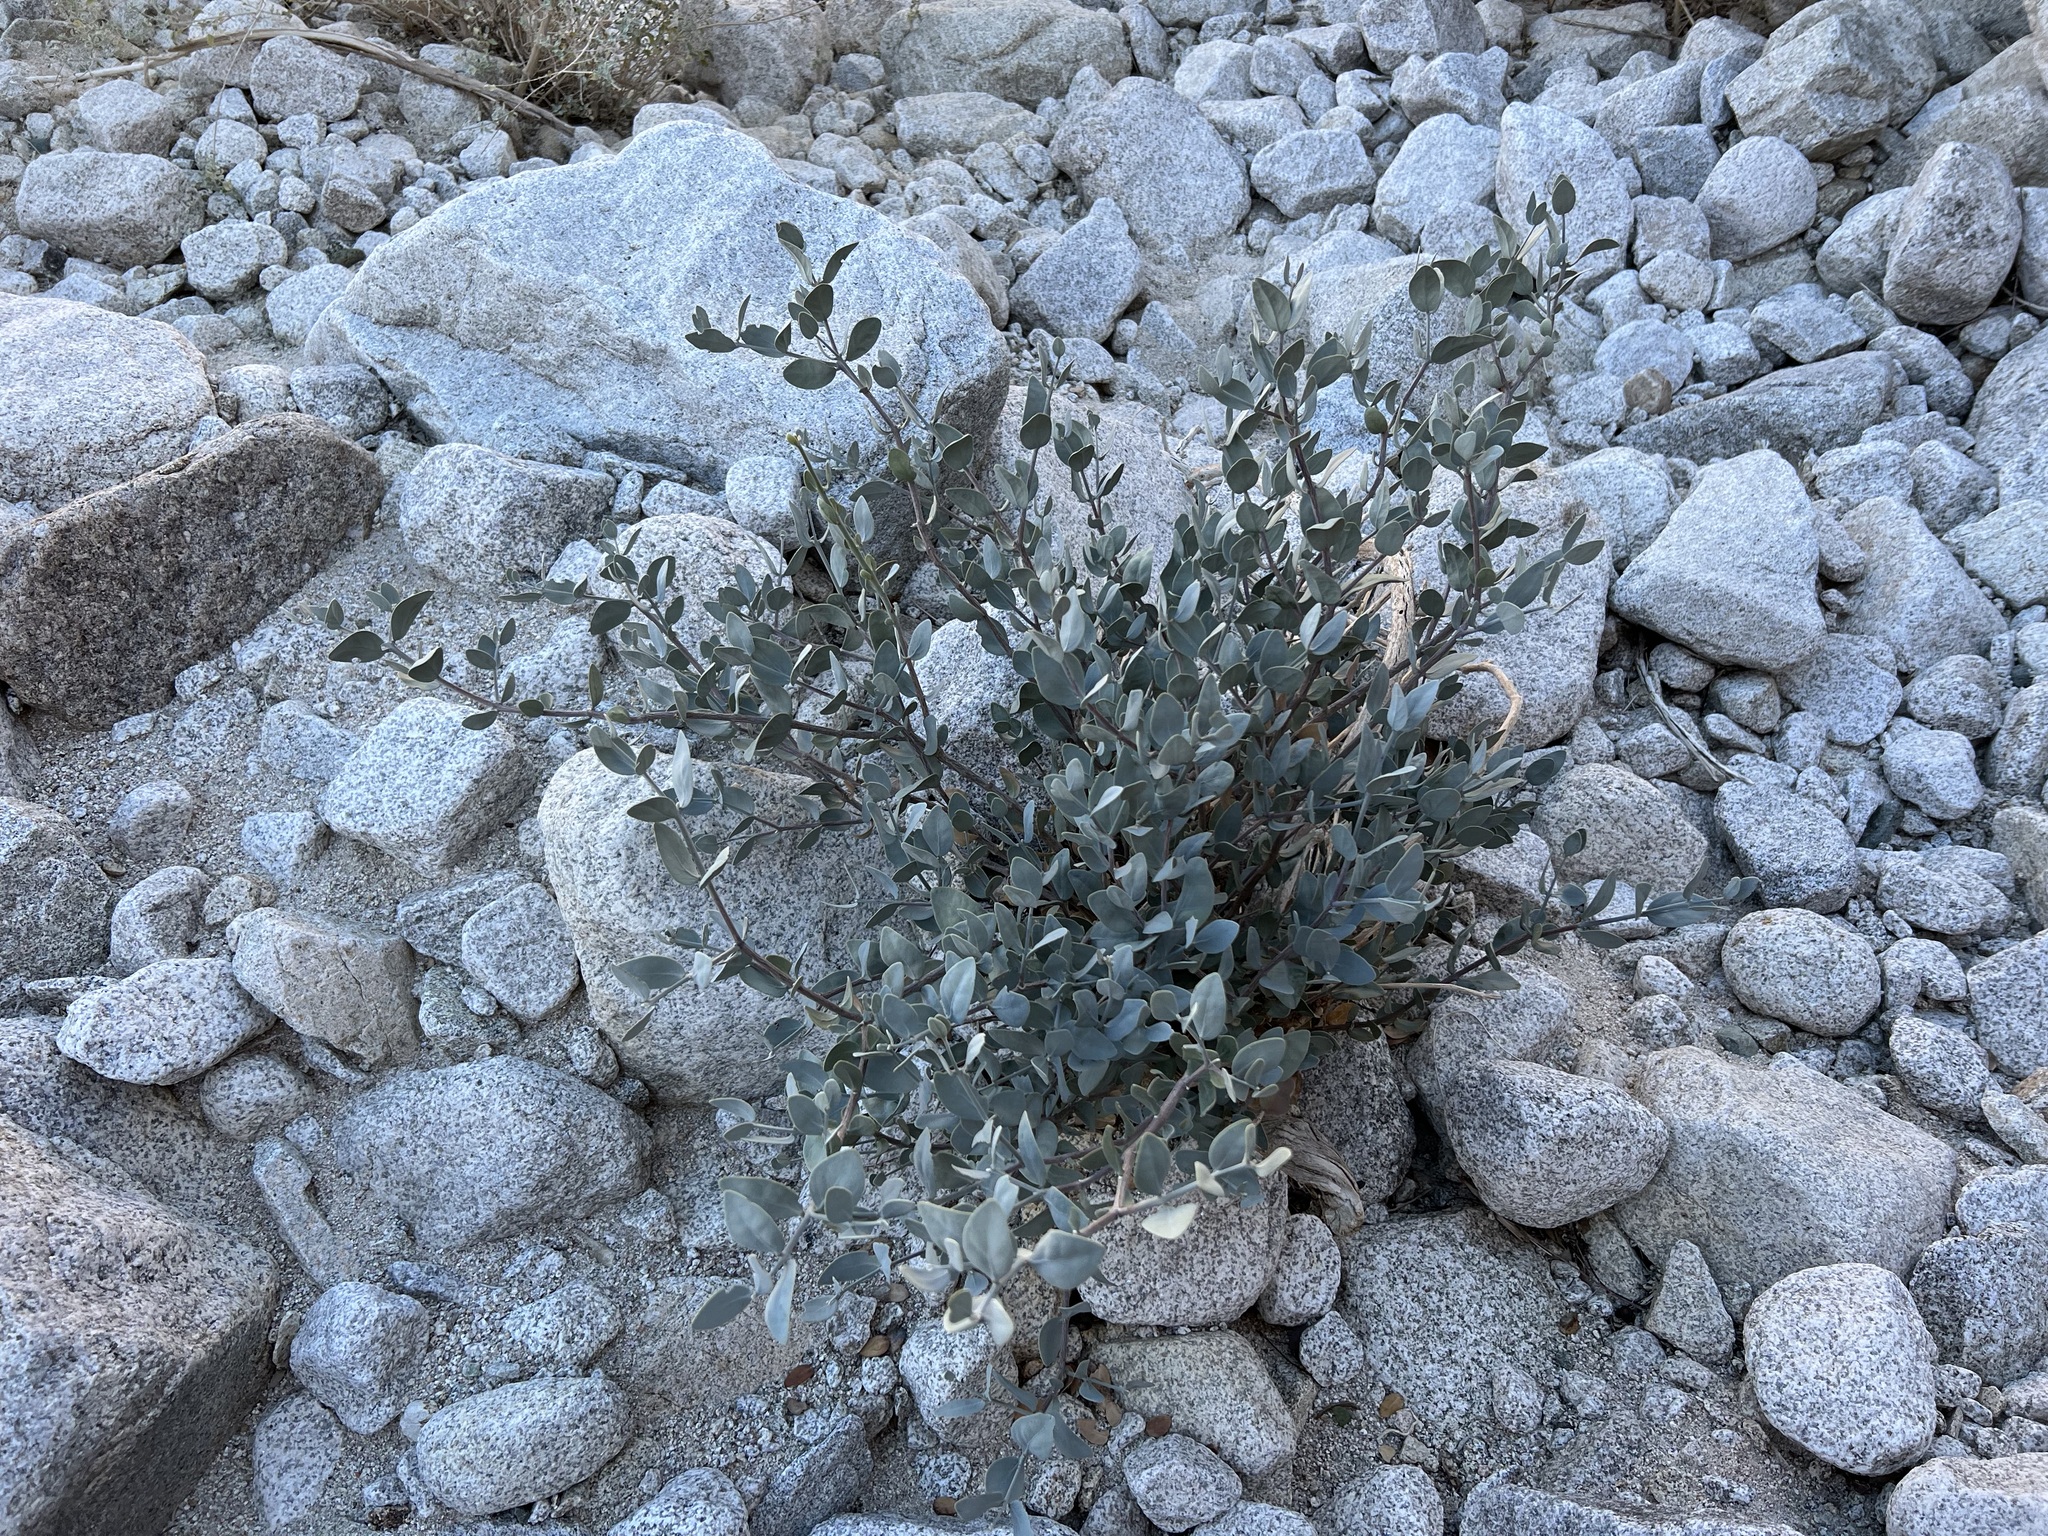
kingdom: Plantae
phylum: Tracheophyta
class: Magnoliopsida
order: Caryophyllales
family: Simmondsiaceae
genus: Simmondsia
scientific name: Simmondsia chinensis
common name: Jojoba
